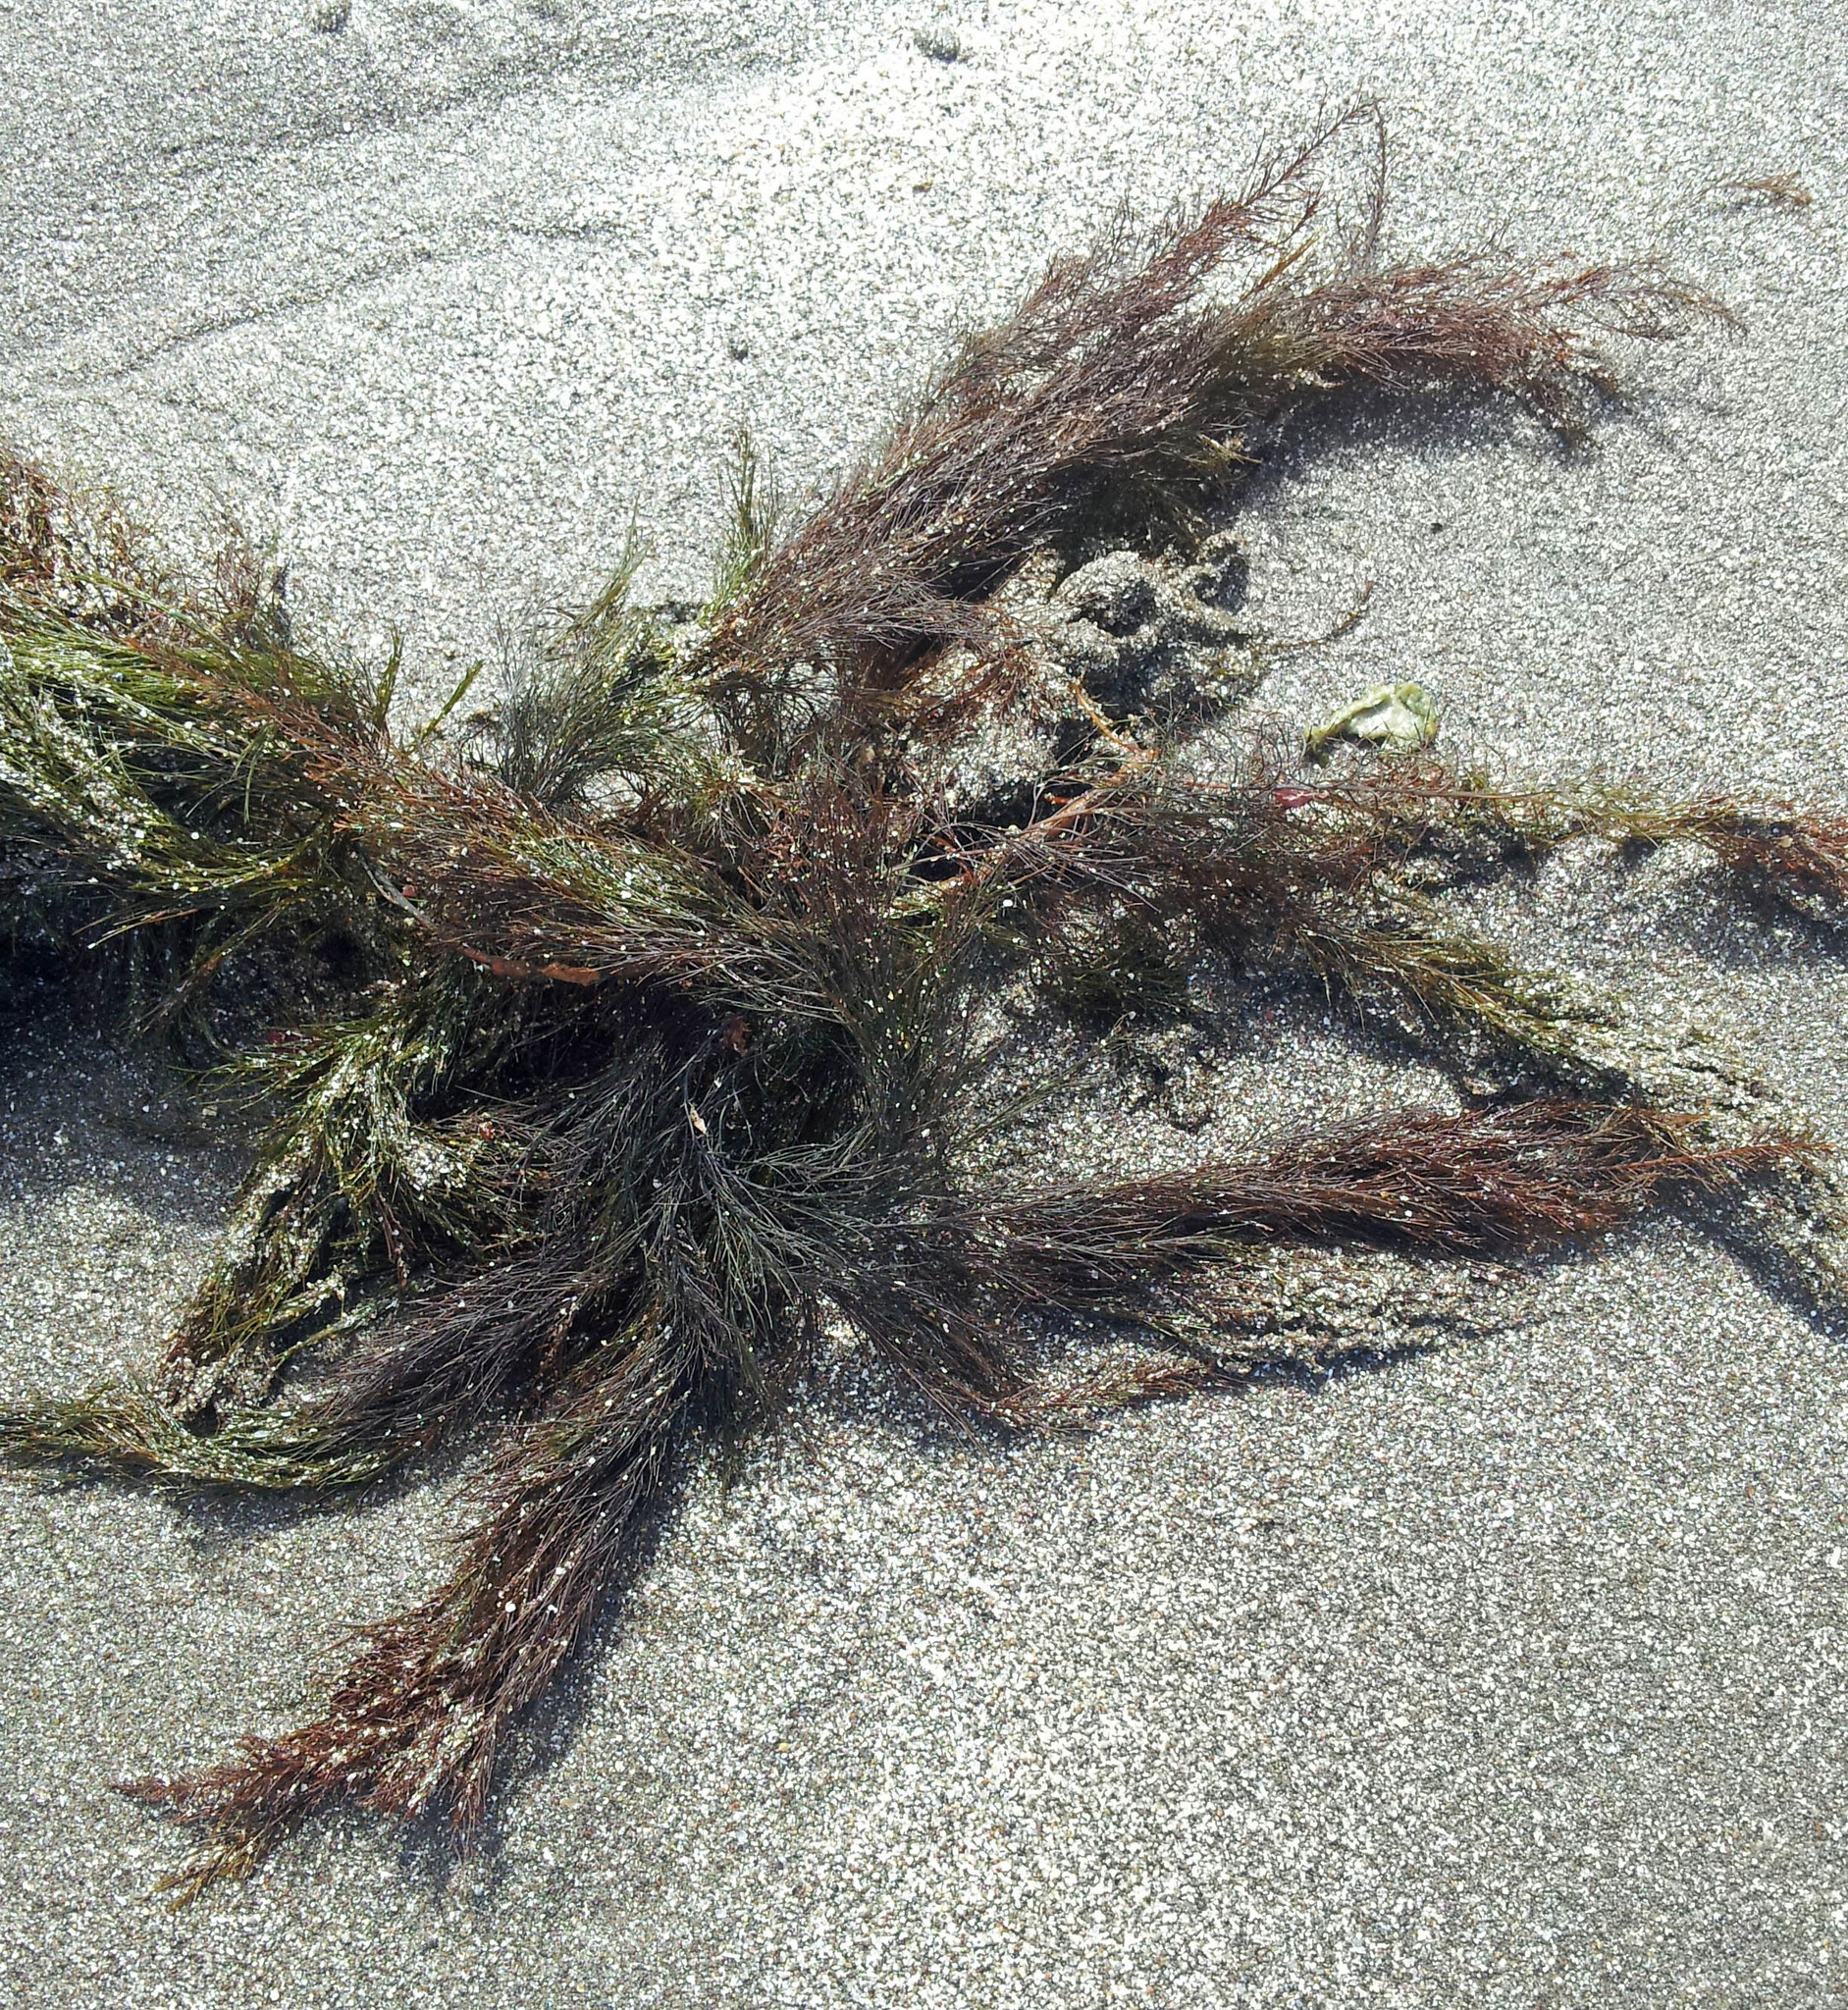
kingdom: Chromista
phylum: Ochrophyta
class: Phaeophyceae
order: Sporochnales
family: Sporochnaceae
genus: Perithalia
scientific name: Perithalia capillaris
